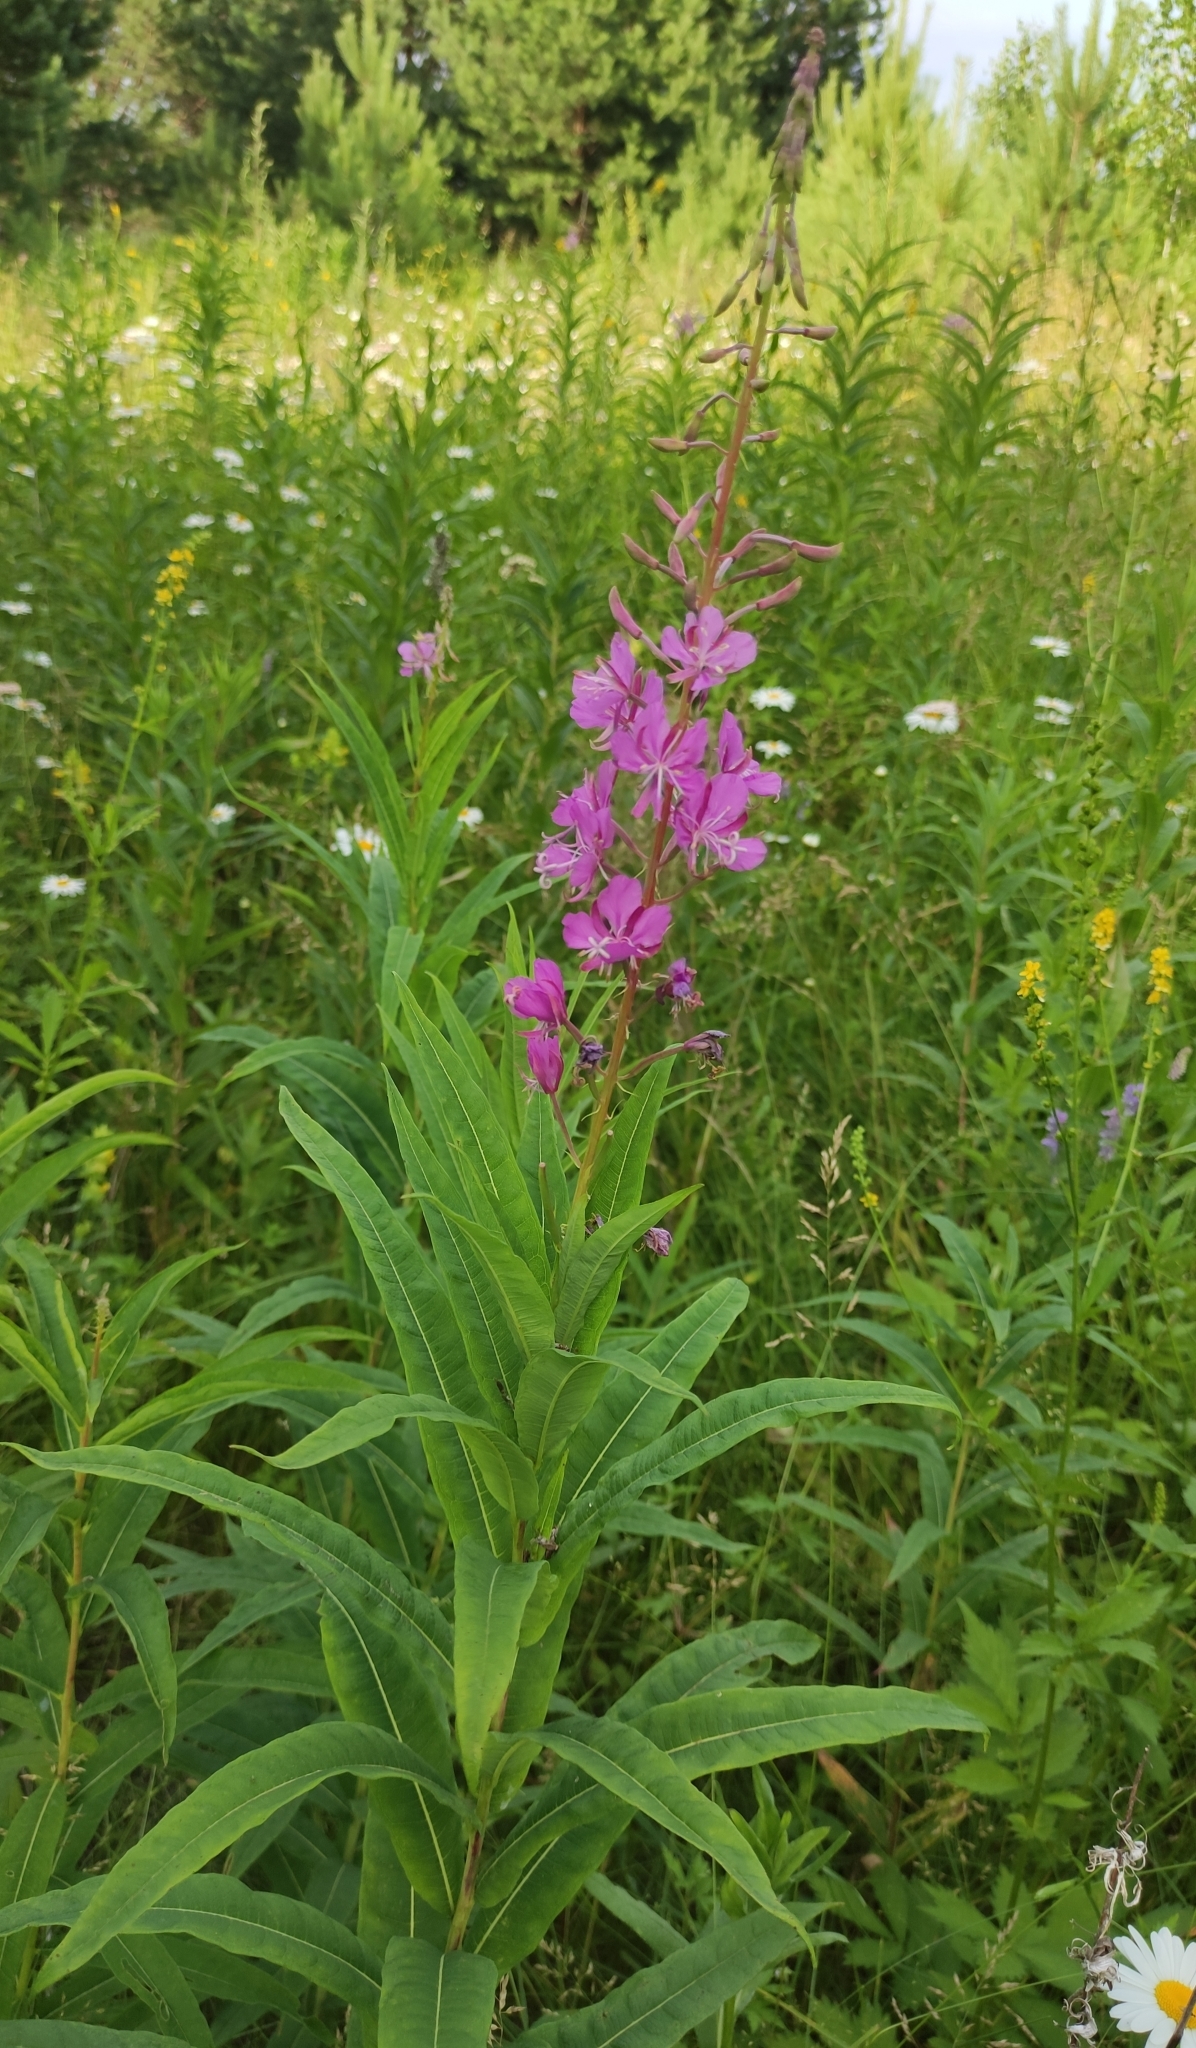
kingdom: Plantae
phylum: Tracheophyta
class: Magnoliopsida
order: Myrtales
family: Onagraceae
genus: Chamaenerion
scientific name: Chamaenerion angustifolium
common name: Fireweed
